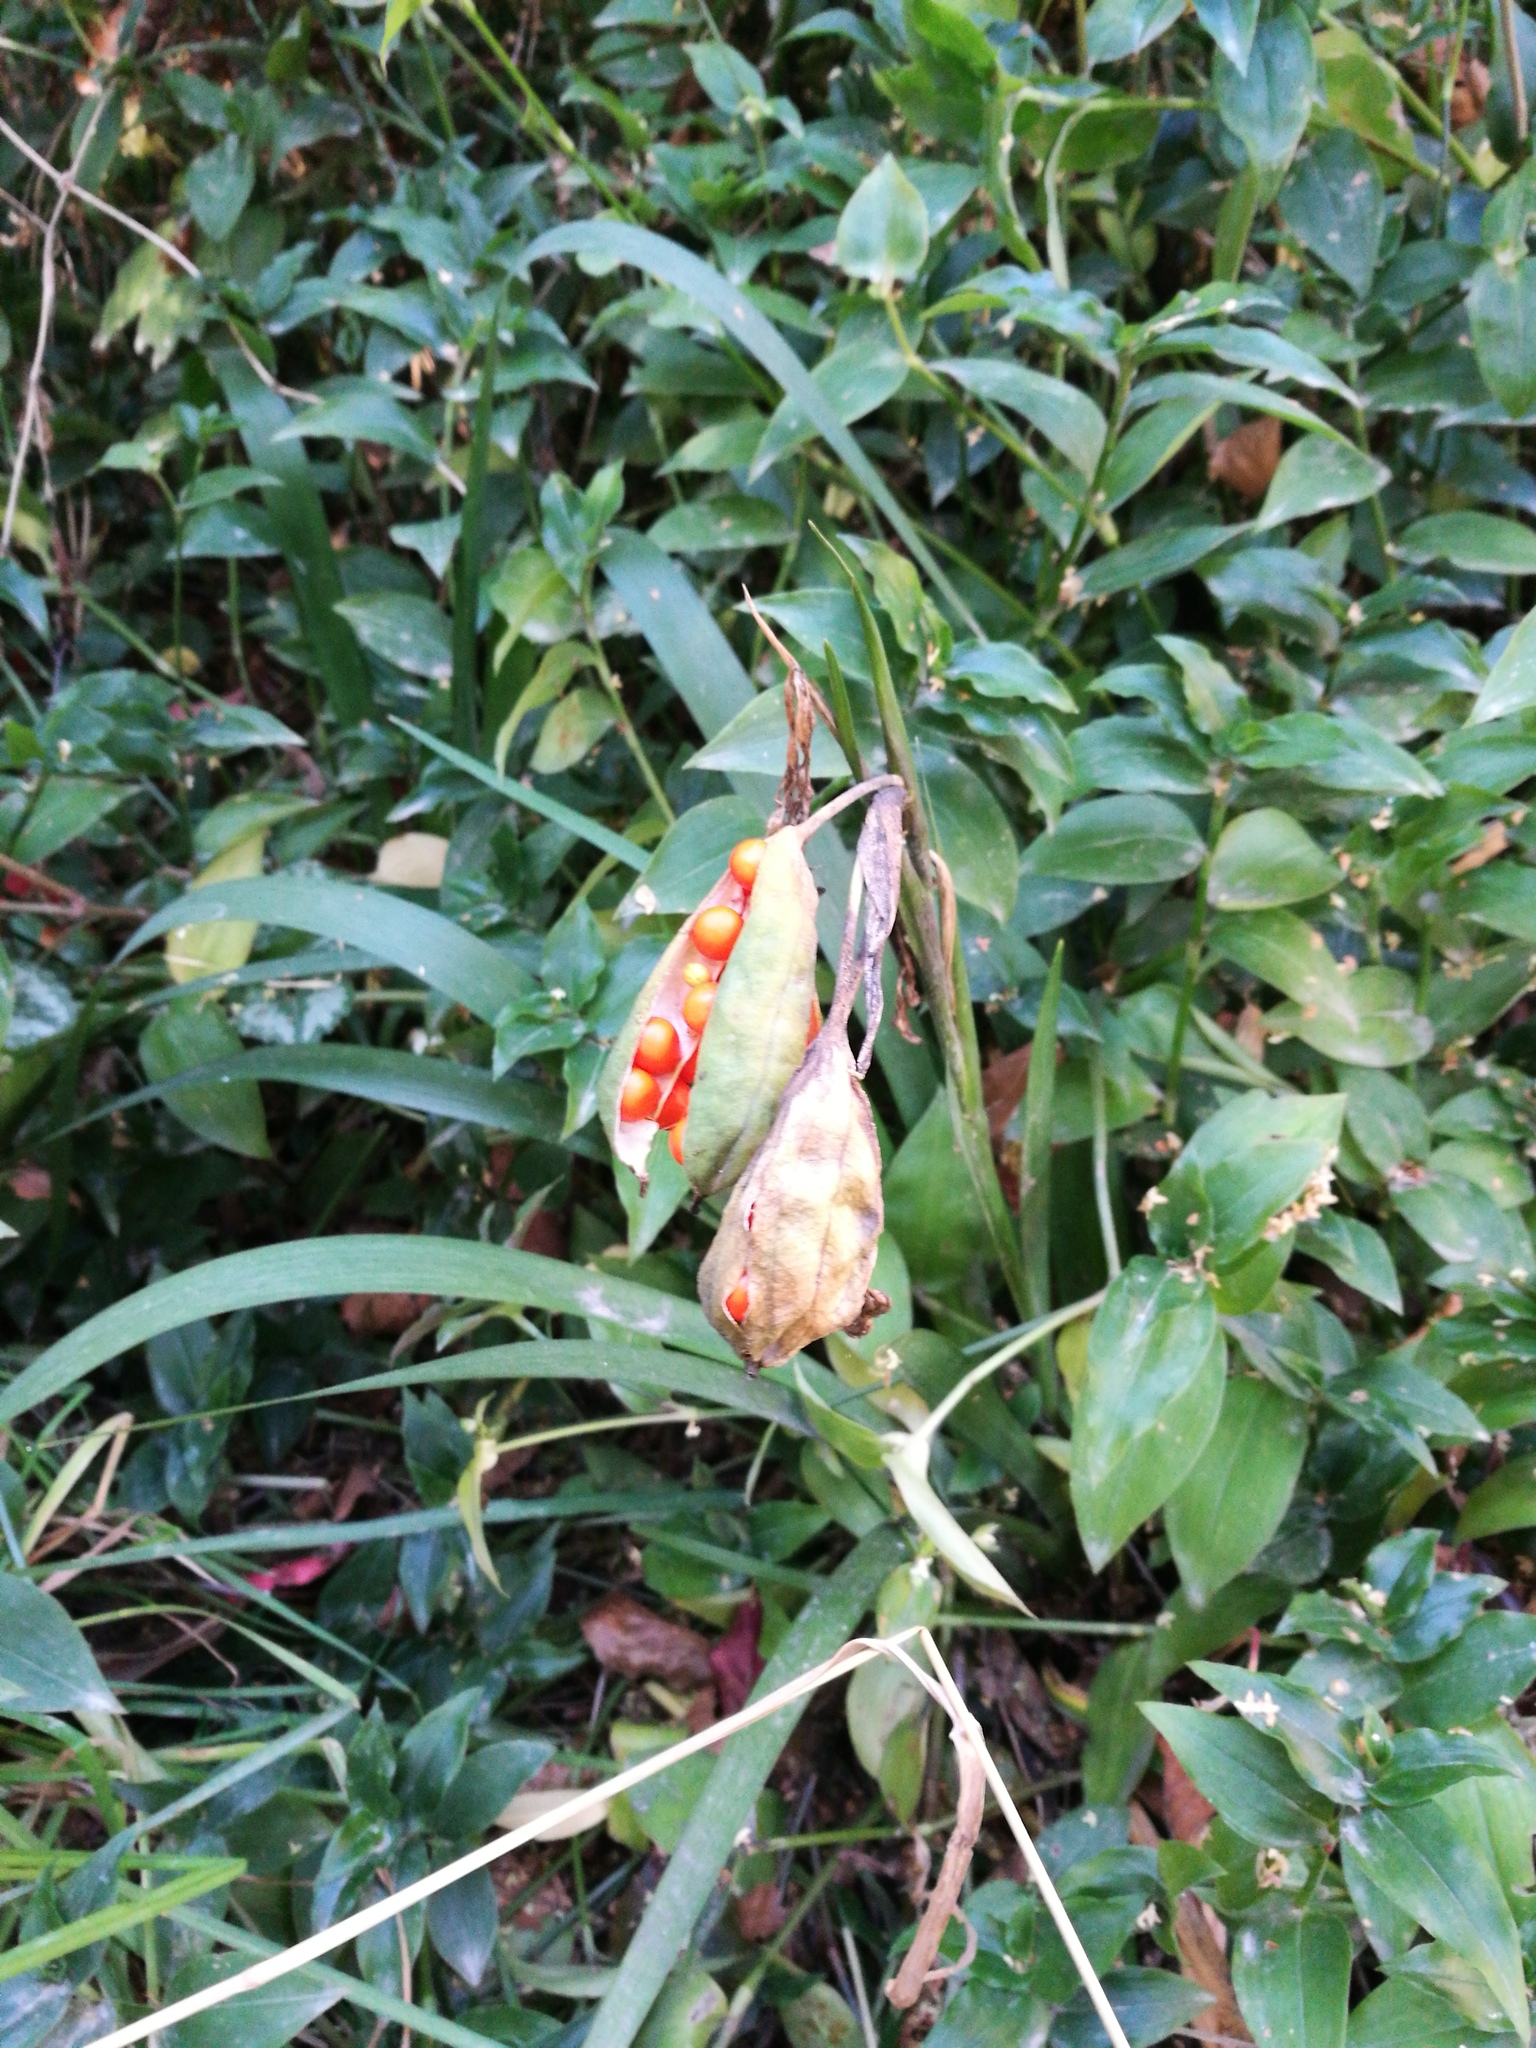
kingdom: Plantae
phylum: Tracheophyta
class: Liliopsida
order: Asparagales
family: Iridaceae
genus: Iris
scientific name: Iris foetidissima
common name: Stinking iris
